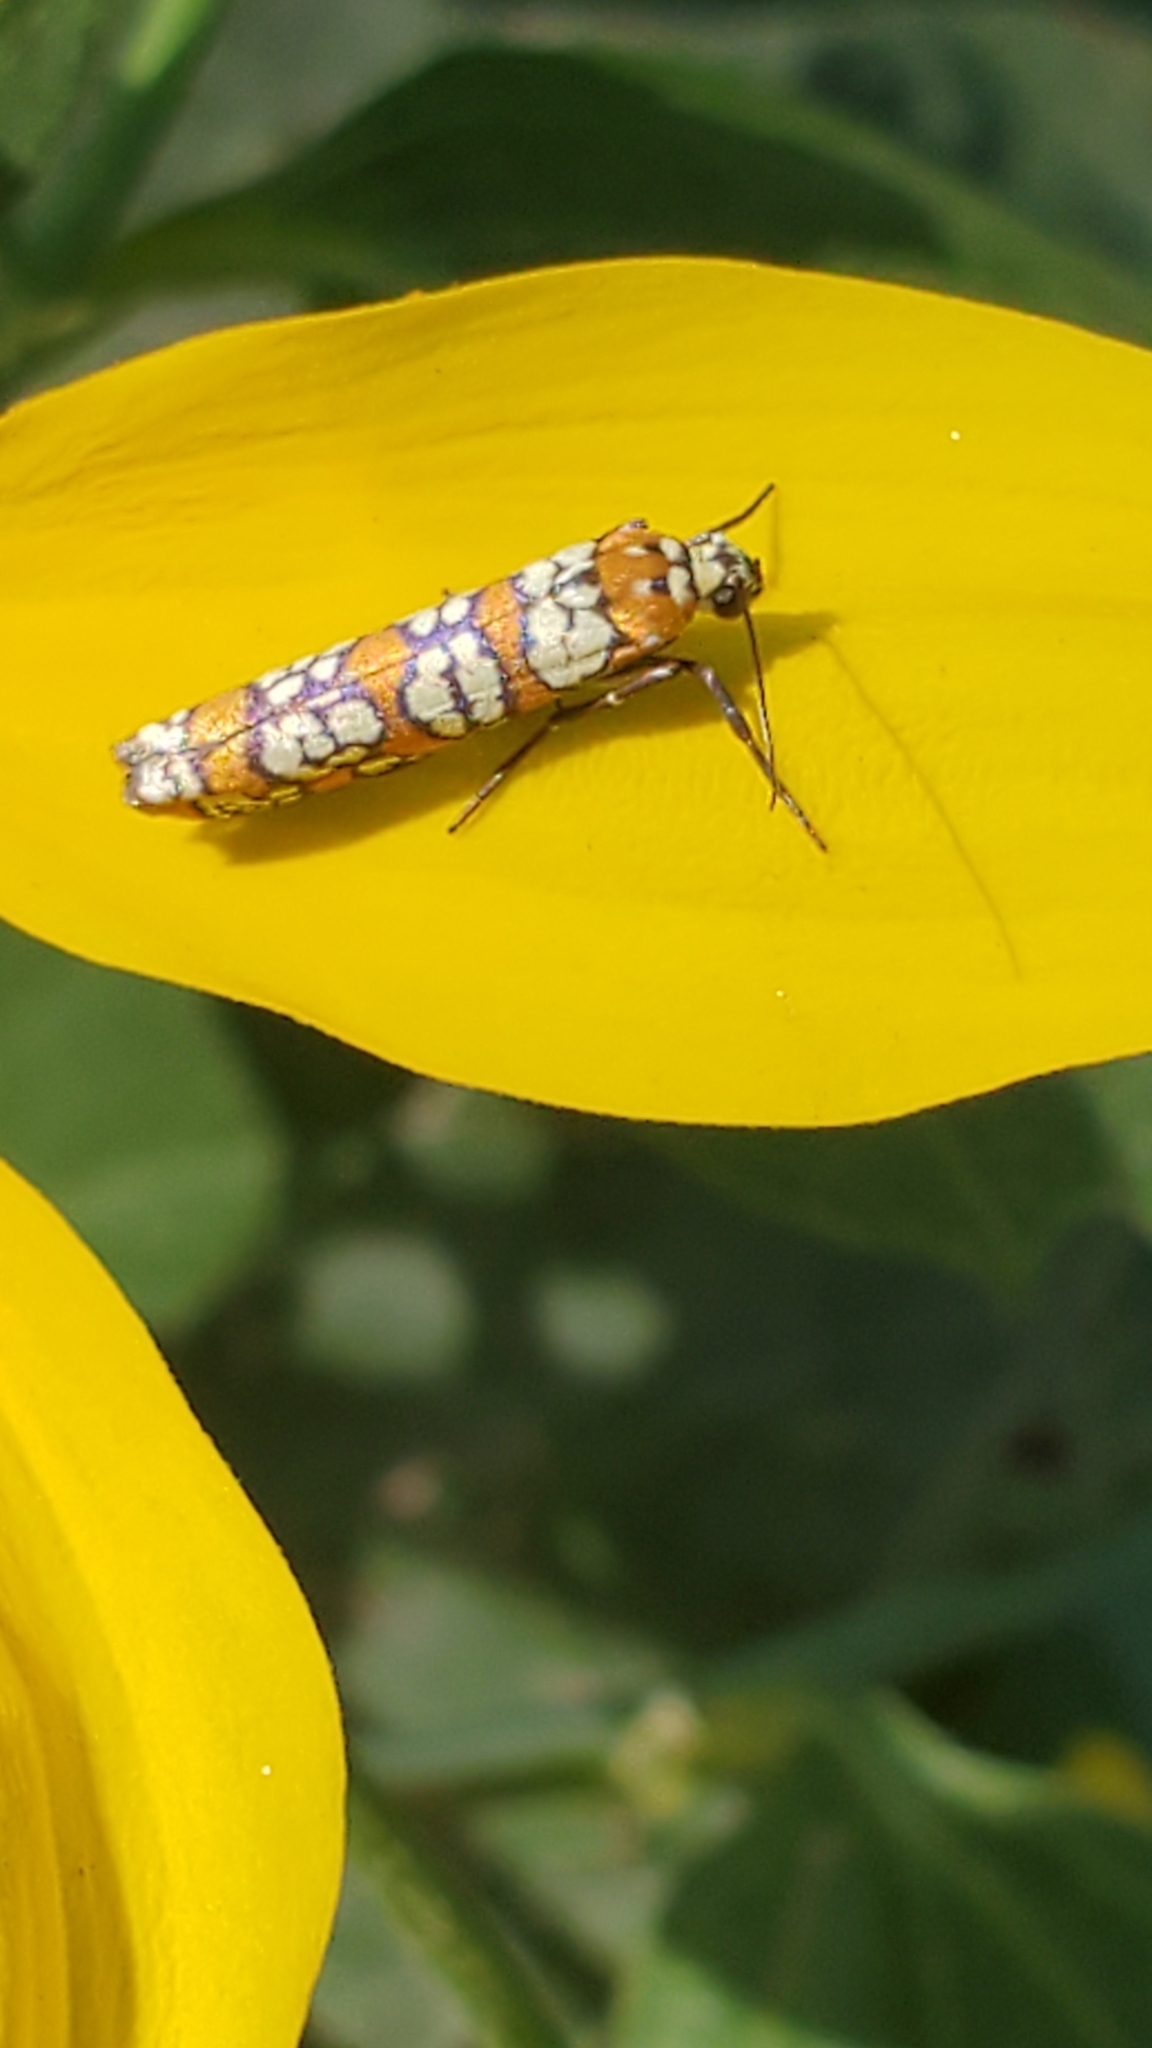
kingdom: Animalia
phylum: Arthropoda
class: Insecta
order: Lepidoptera
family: Attevidae
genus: Atteva
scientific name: Atteva punctella
